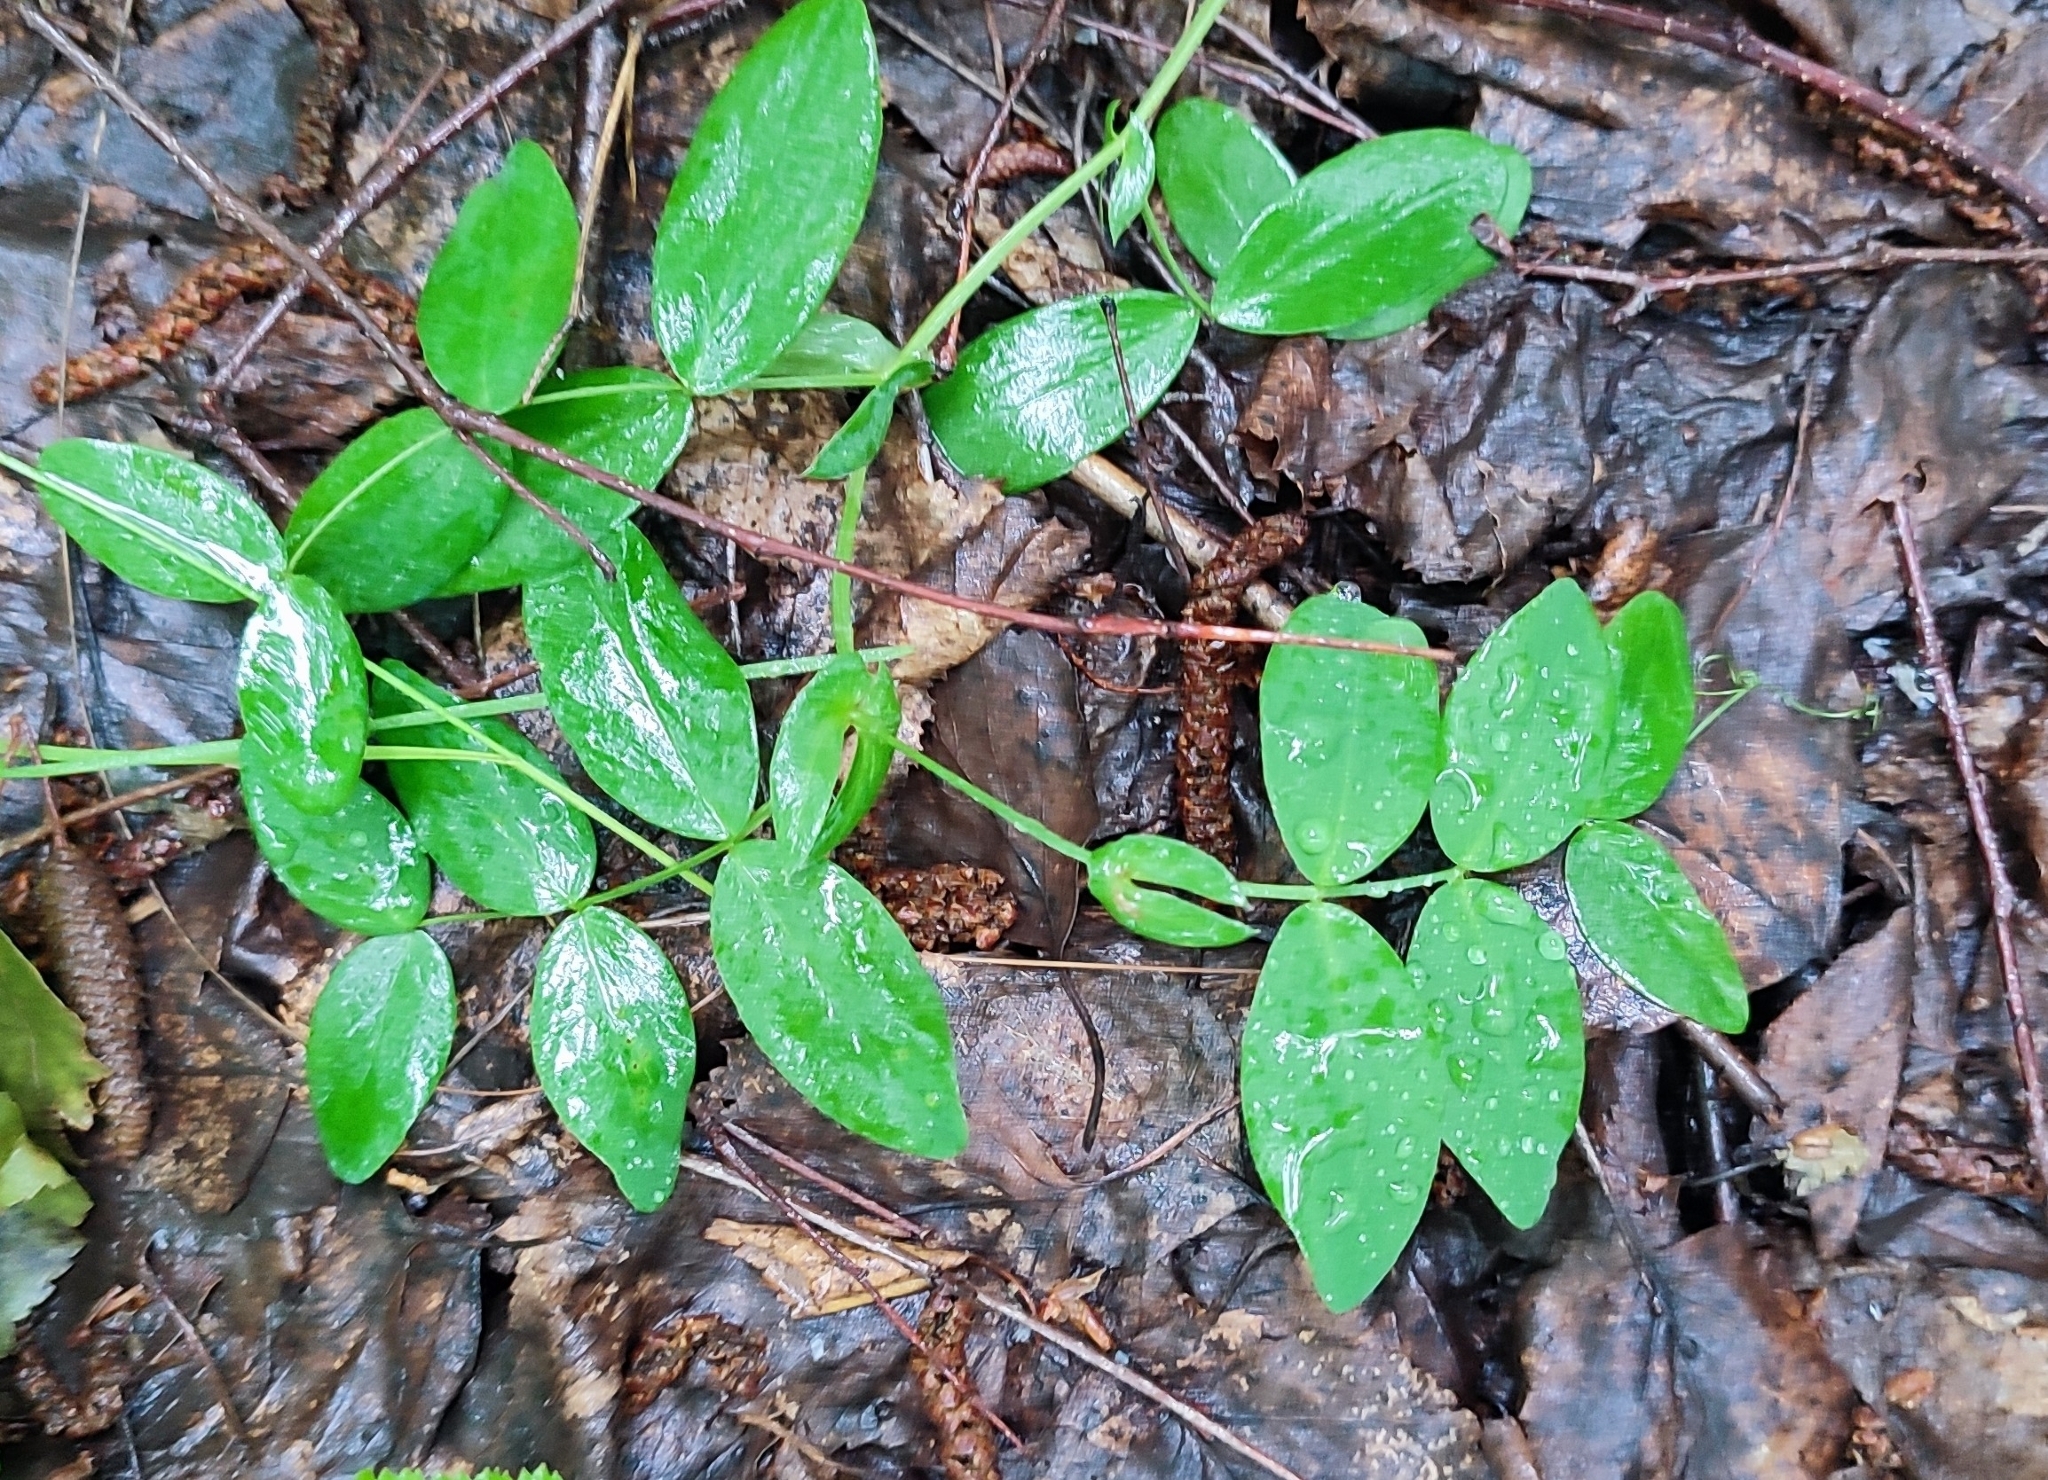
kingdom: Plantae
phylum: Tracheophyta
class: Magnoliopsida
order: Fabales
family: Fabaceae
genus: Lathyrus
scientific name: Lathyrus pisiformis
